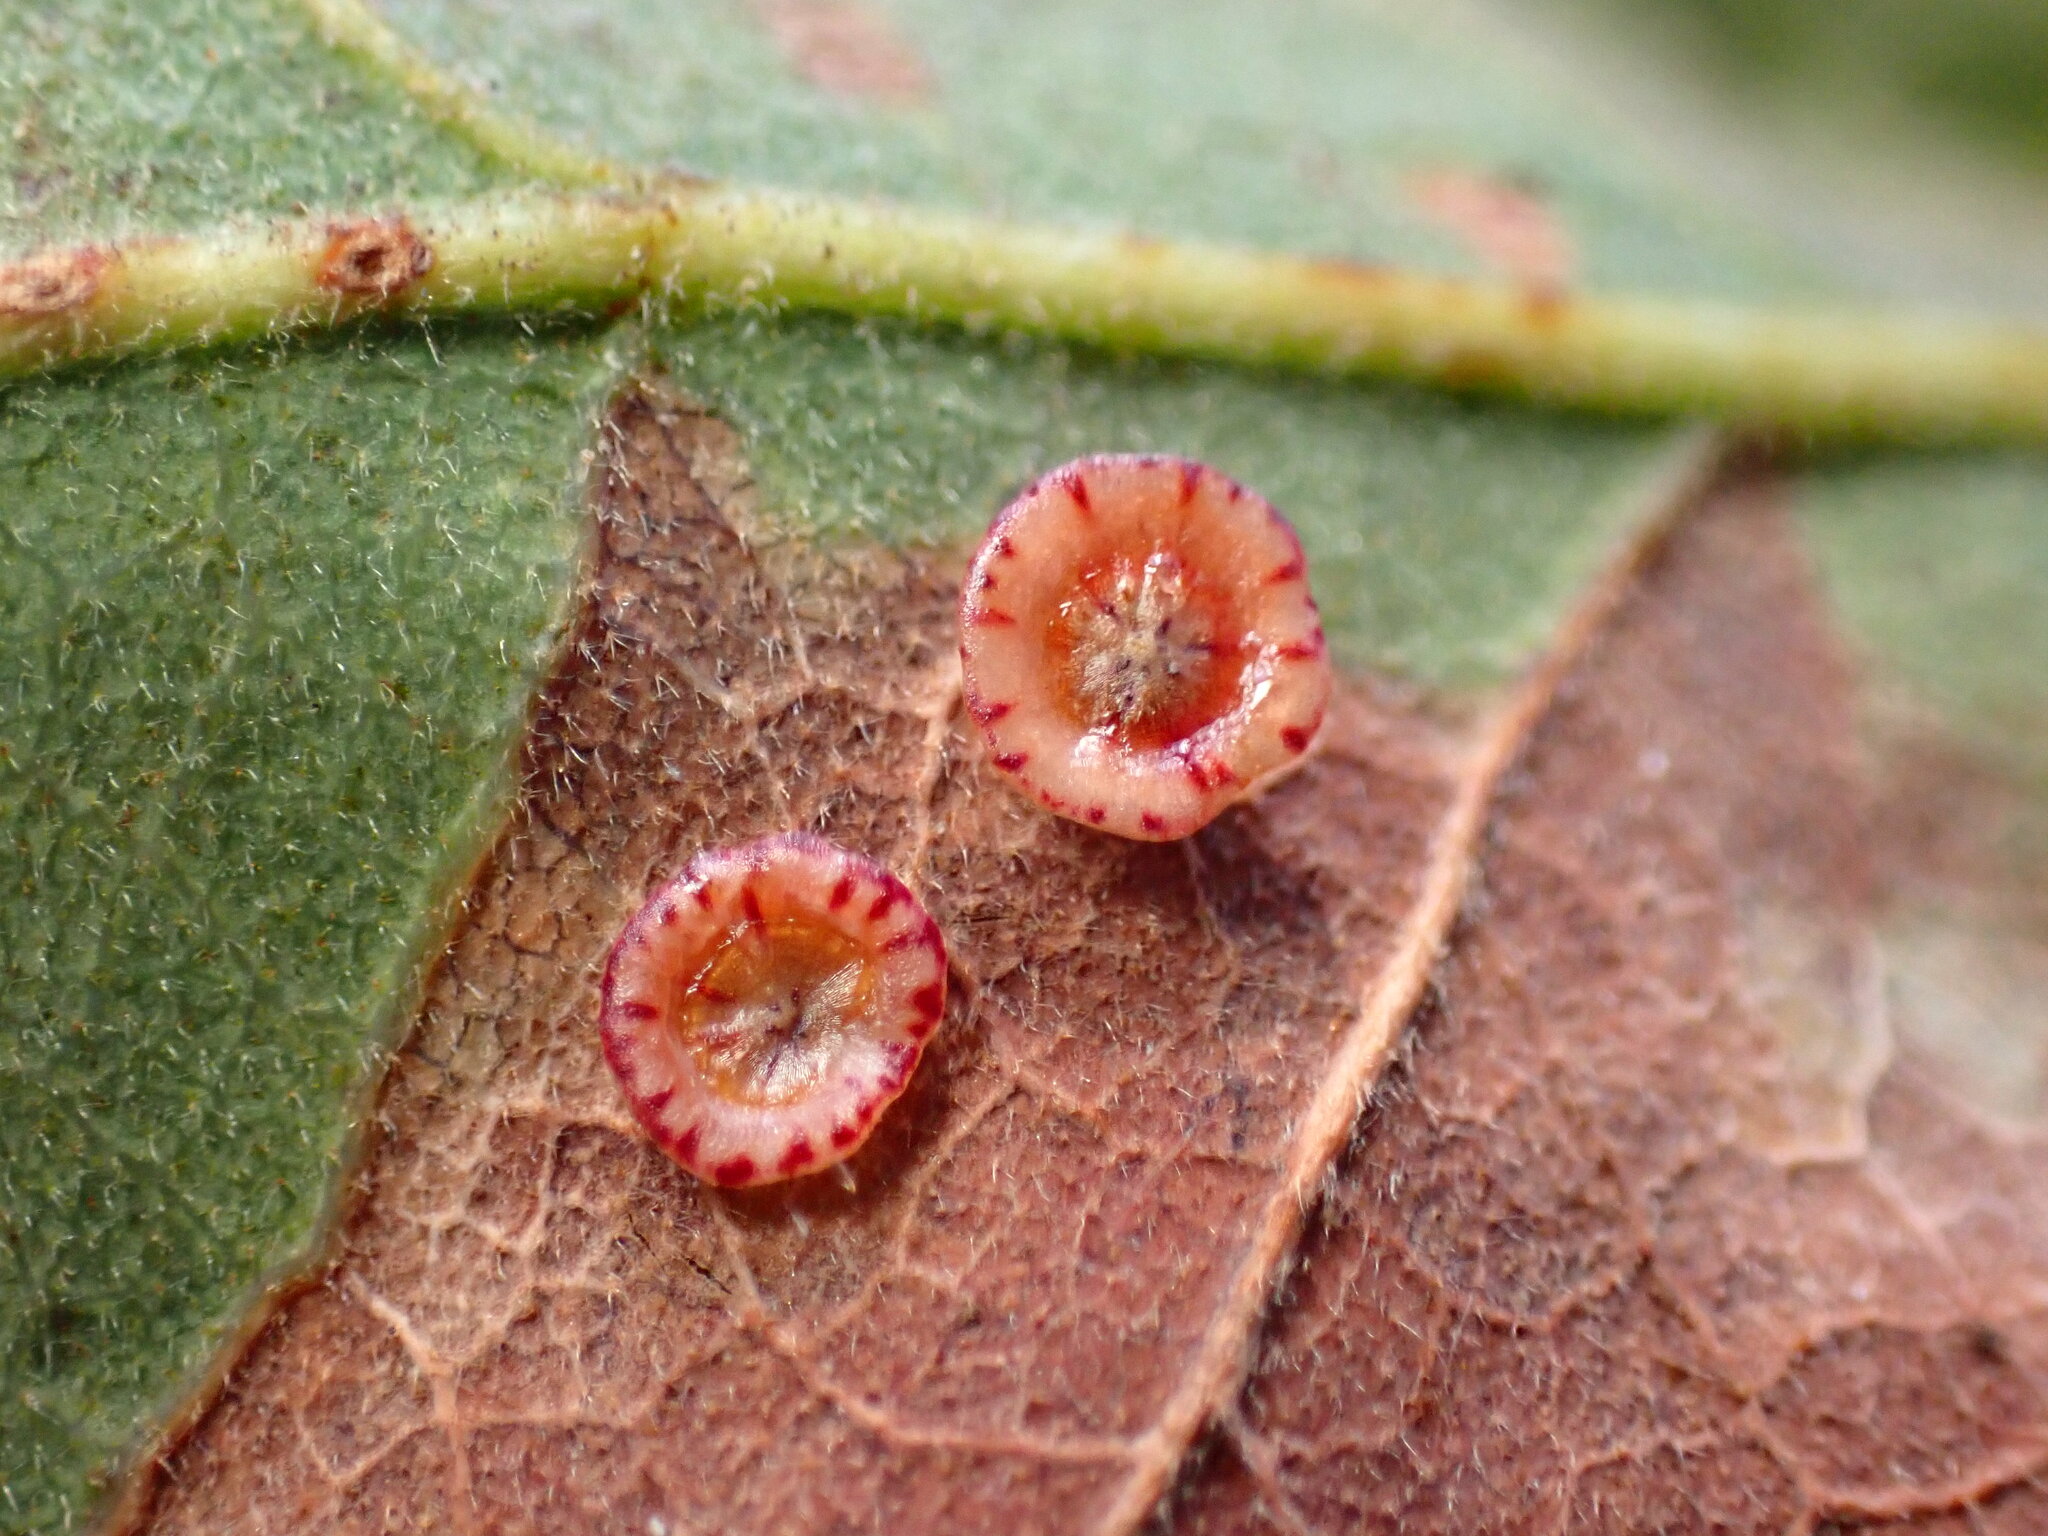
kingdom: Animalia
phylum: Arthropoda
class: Insecta
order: Hymenoptera
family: Cynipidae
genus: Andricus
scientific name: Andricus
